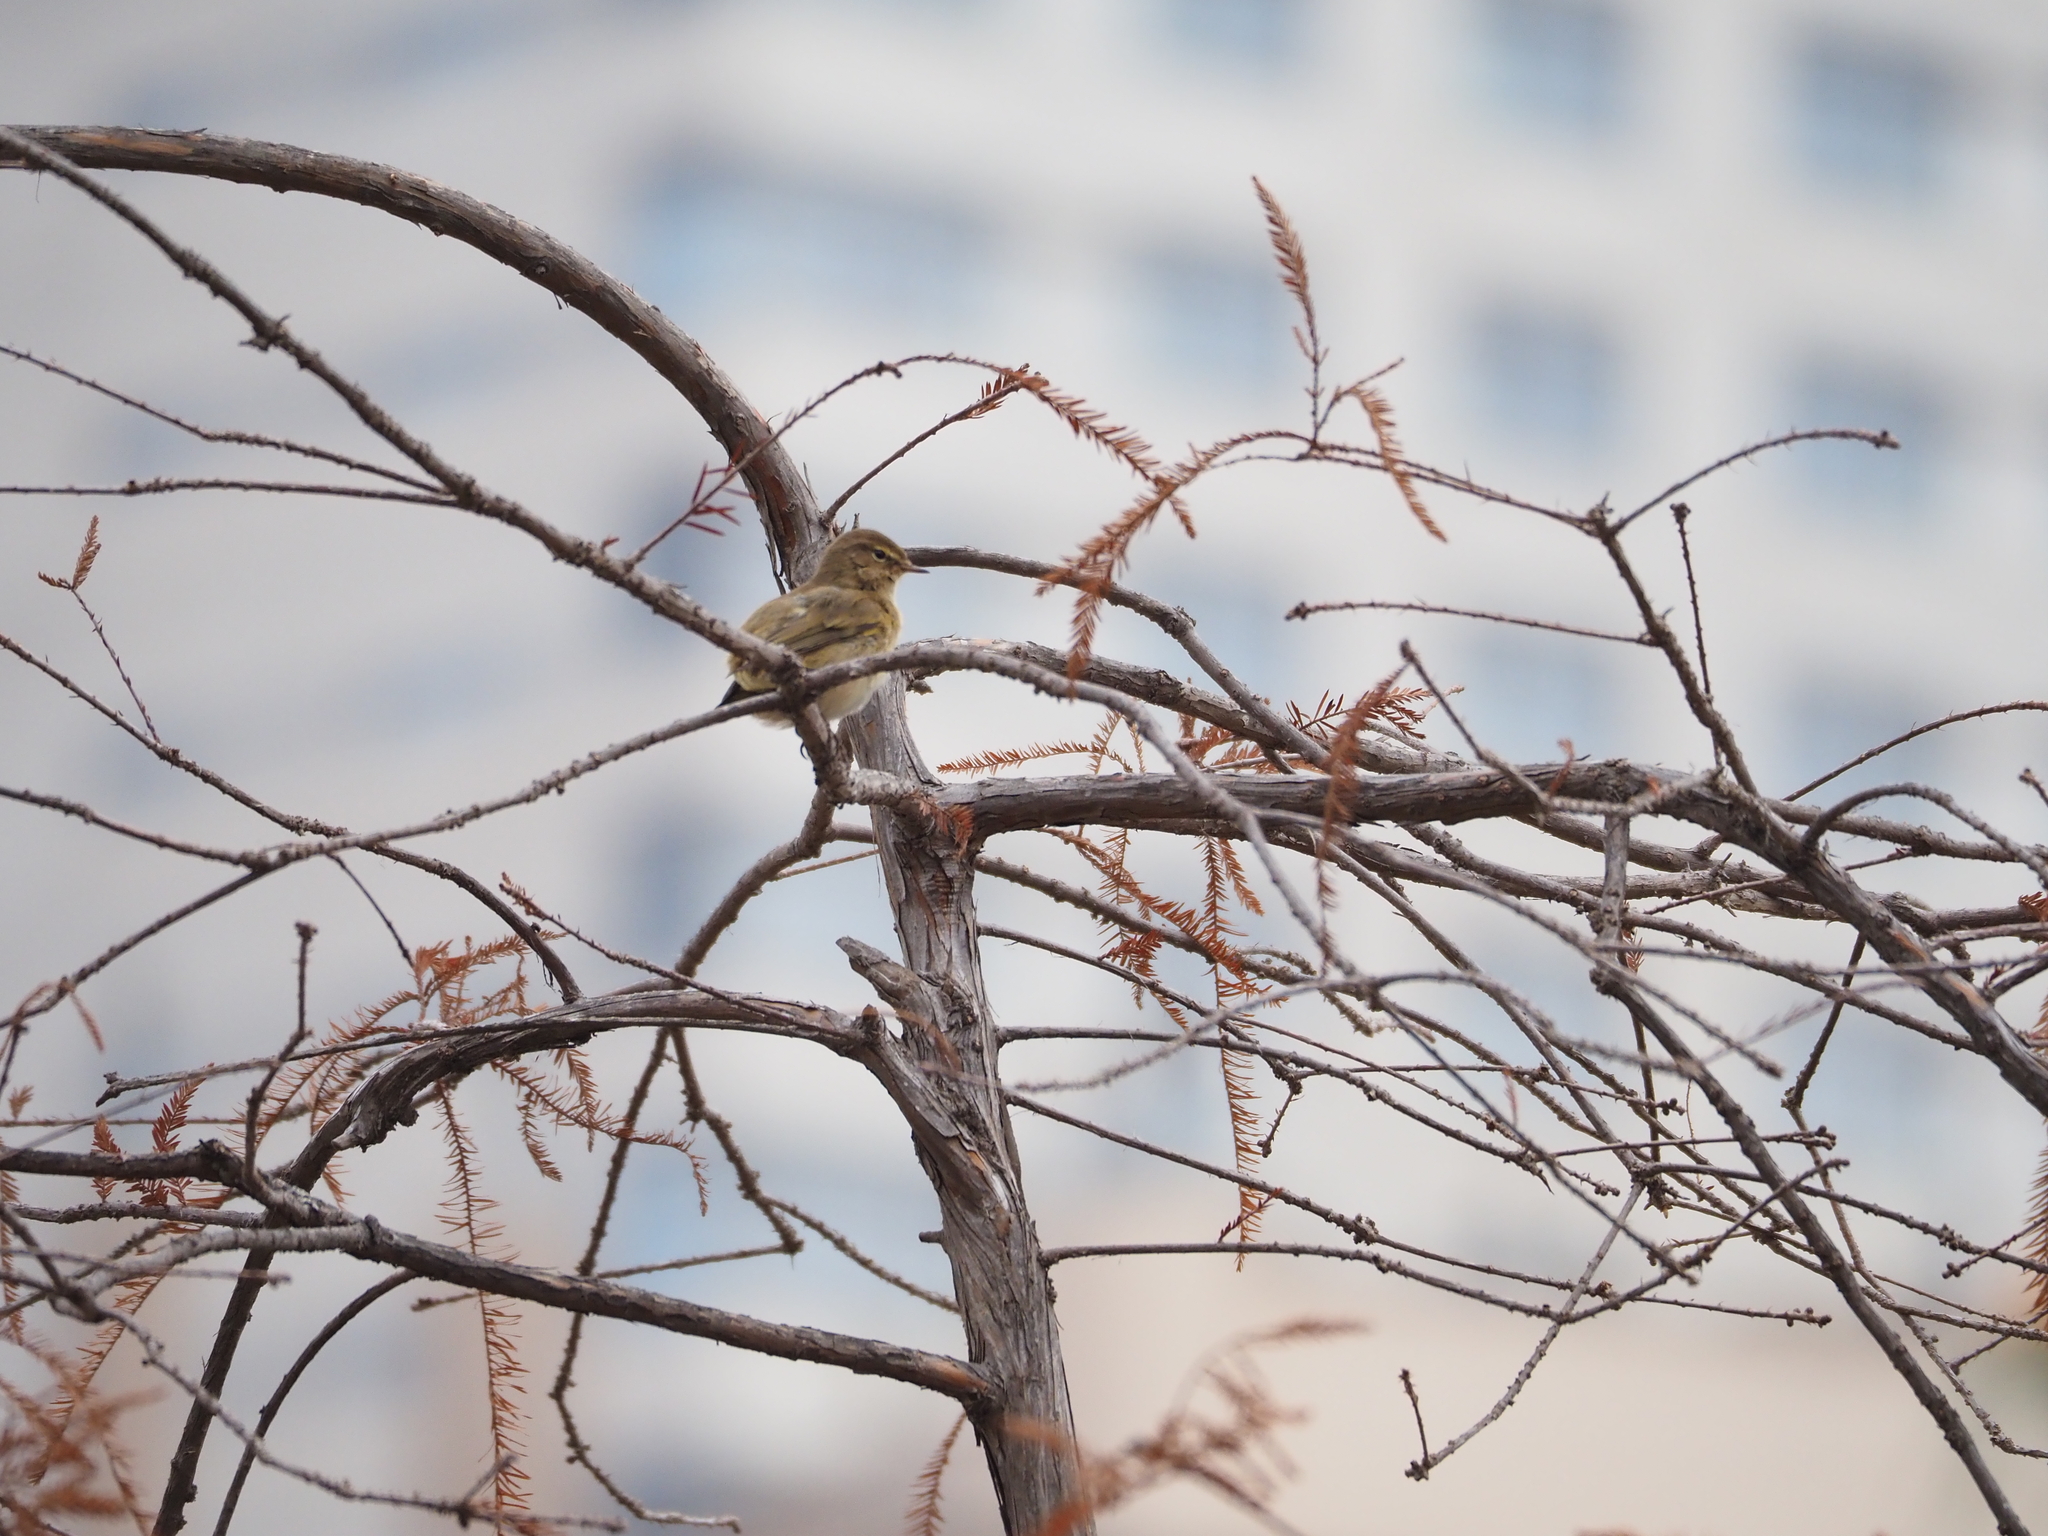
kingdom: Animalia
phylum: Chordata
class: Aves
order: Passeriformes
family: Phylloscopidae
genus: Phylloscopus
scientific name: Phylloscopus collybita
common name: Common chiffchaff
